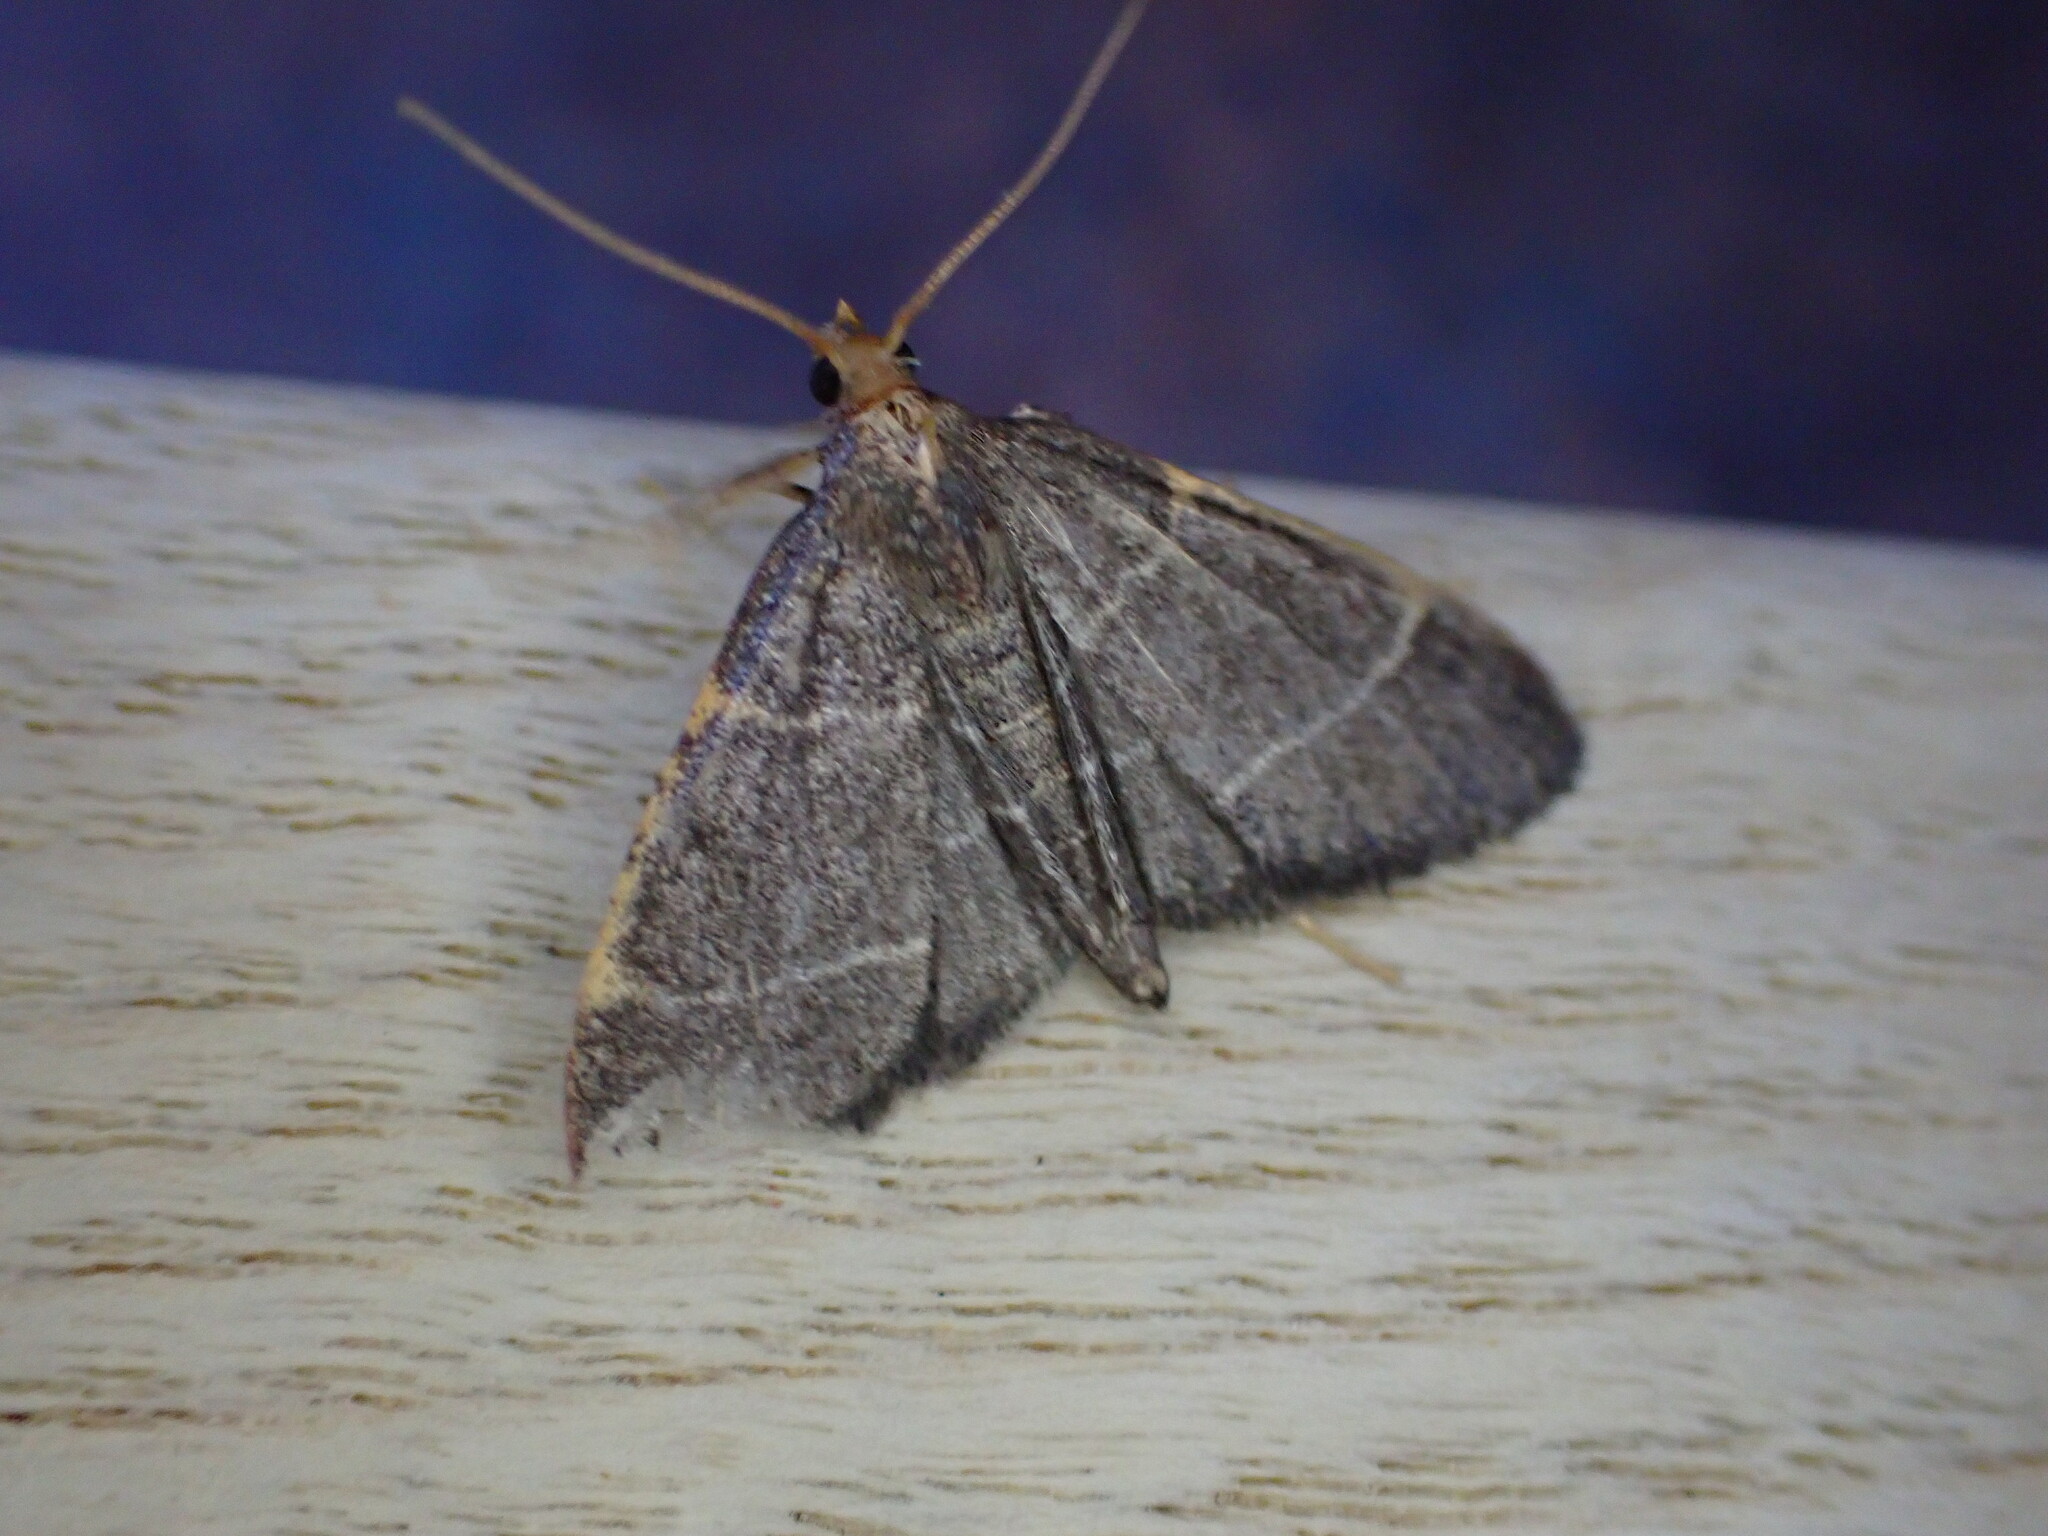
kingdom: Animalia
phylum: Arthropoda
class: Insecta
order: Lepidoptera
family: Pyralidae
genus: Hypsopygia
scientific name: Hypsopygia glaucinalis
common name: Double-striped tabby
